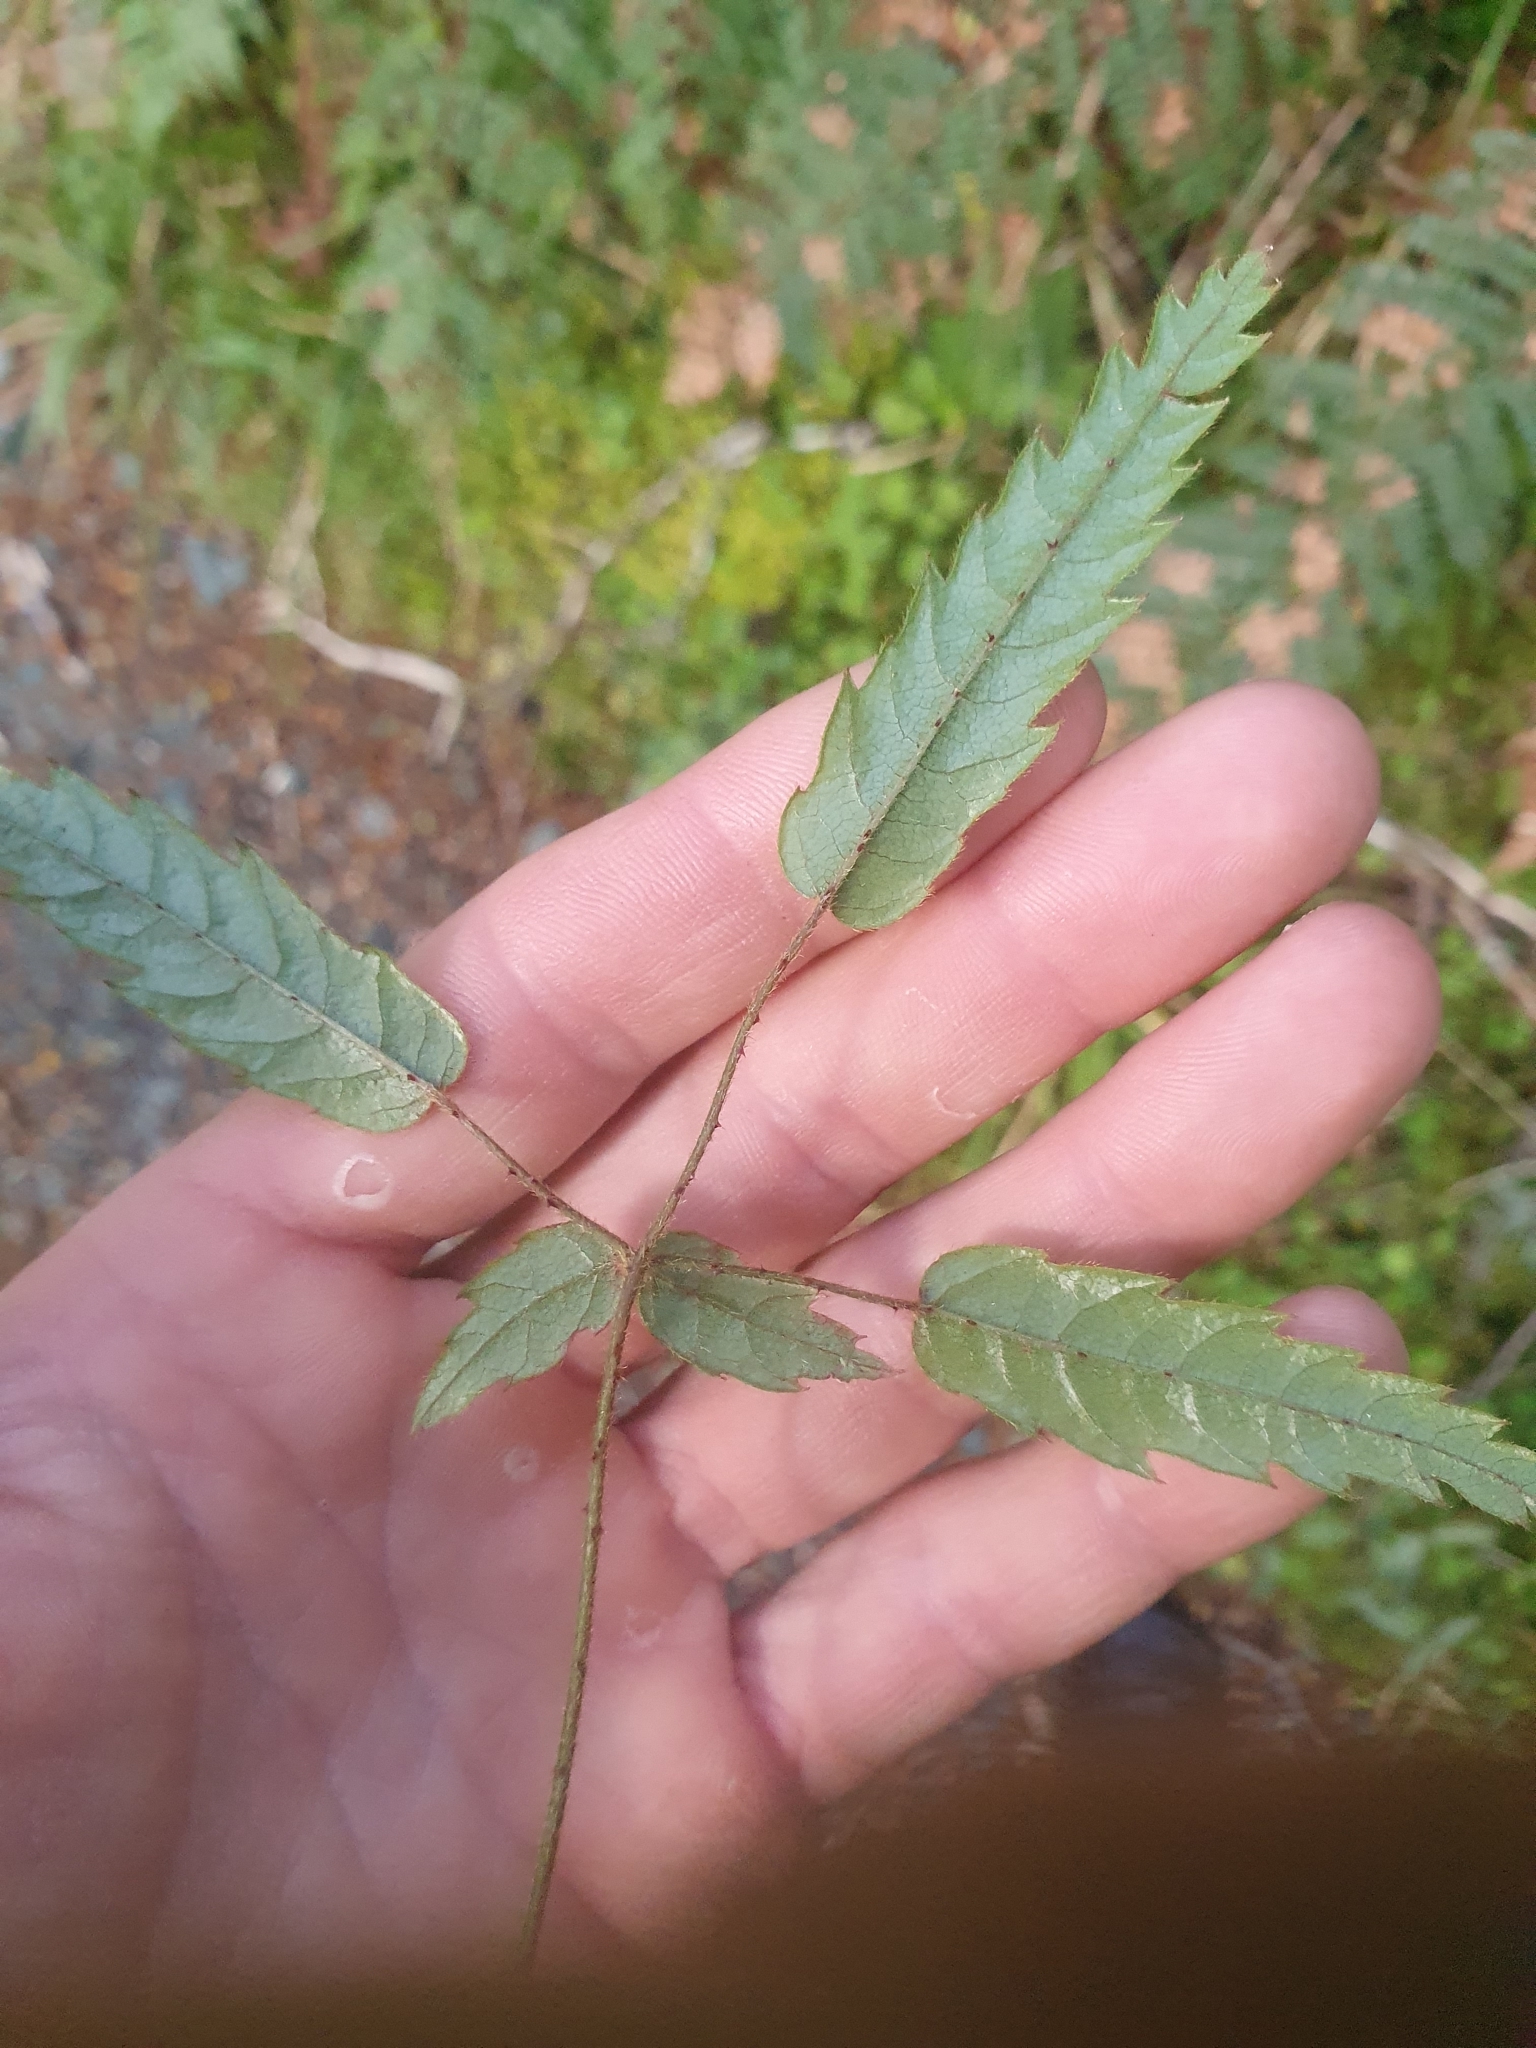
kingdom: Plantae
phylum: Tracheophyta
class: Magnoliopsida
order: Rosales
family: Rosaceae
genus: Rubus
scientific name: Rubus schmidelioides
